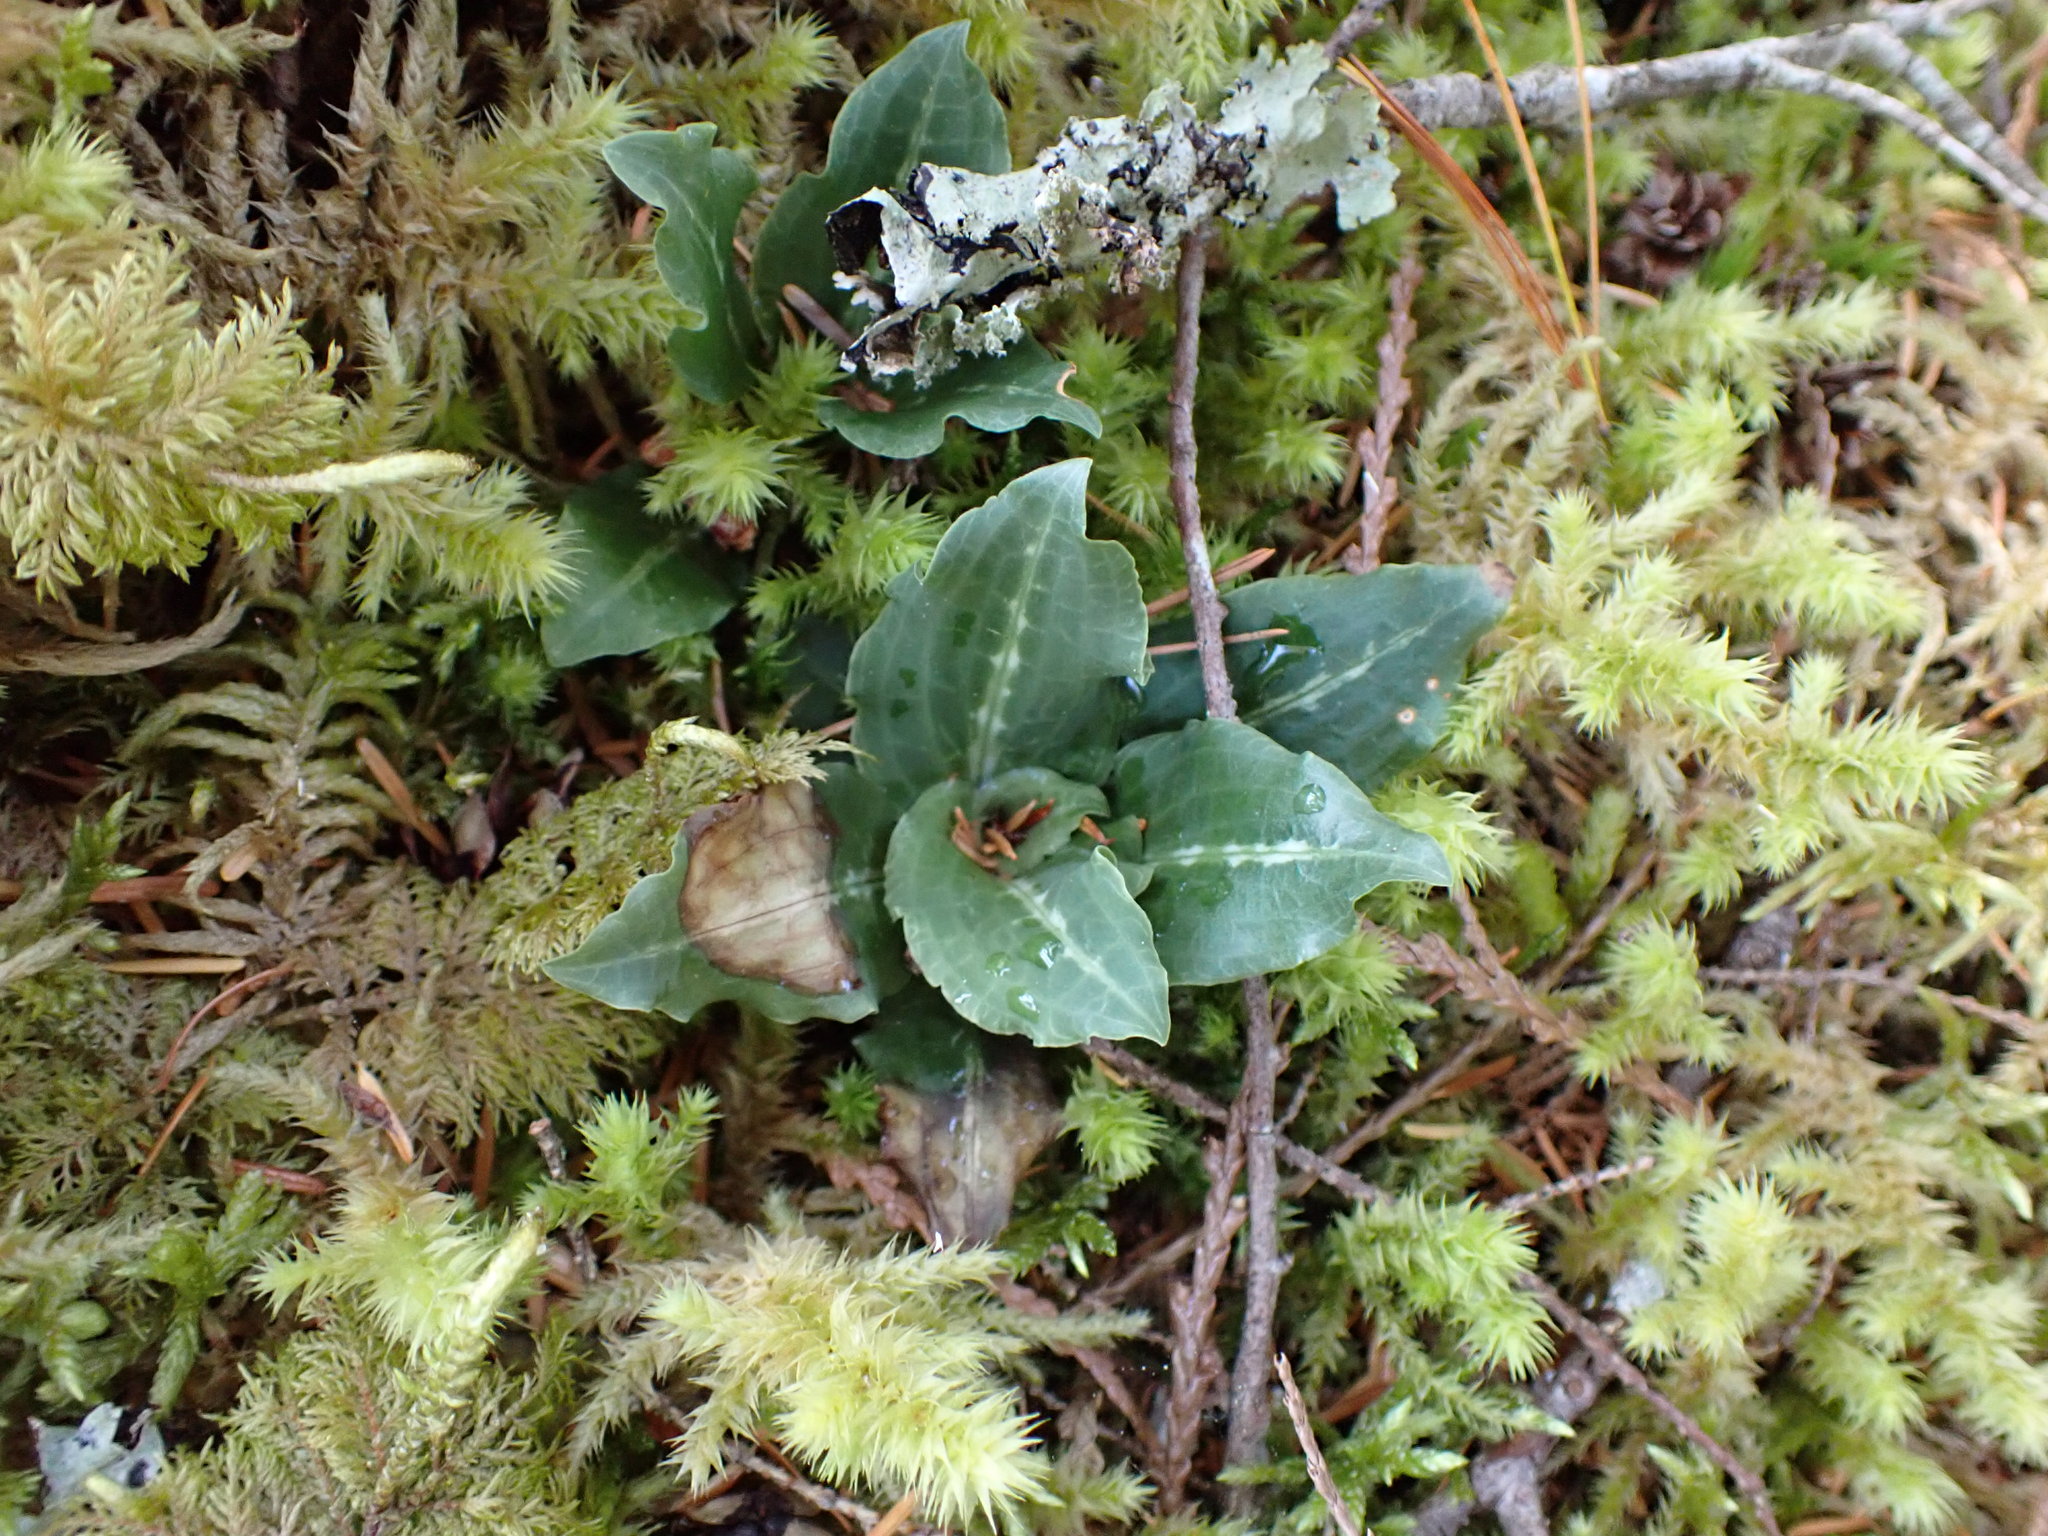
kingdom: Plantae
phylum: Tracheophyta
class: Liliopsida
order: Asparagales
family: Orchidaceae
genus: Goodyera
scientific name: Goodyera oblongifolia
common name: Giant rattlesnake-plantain
